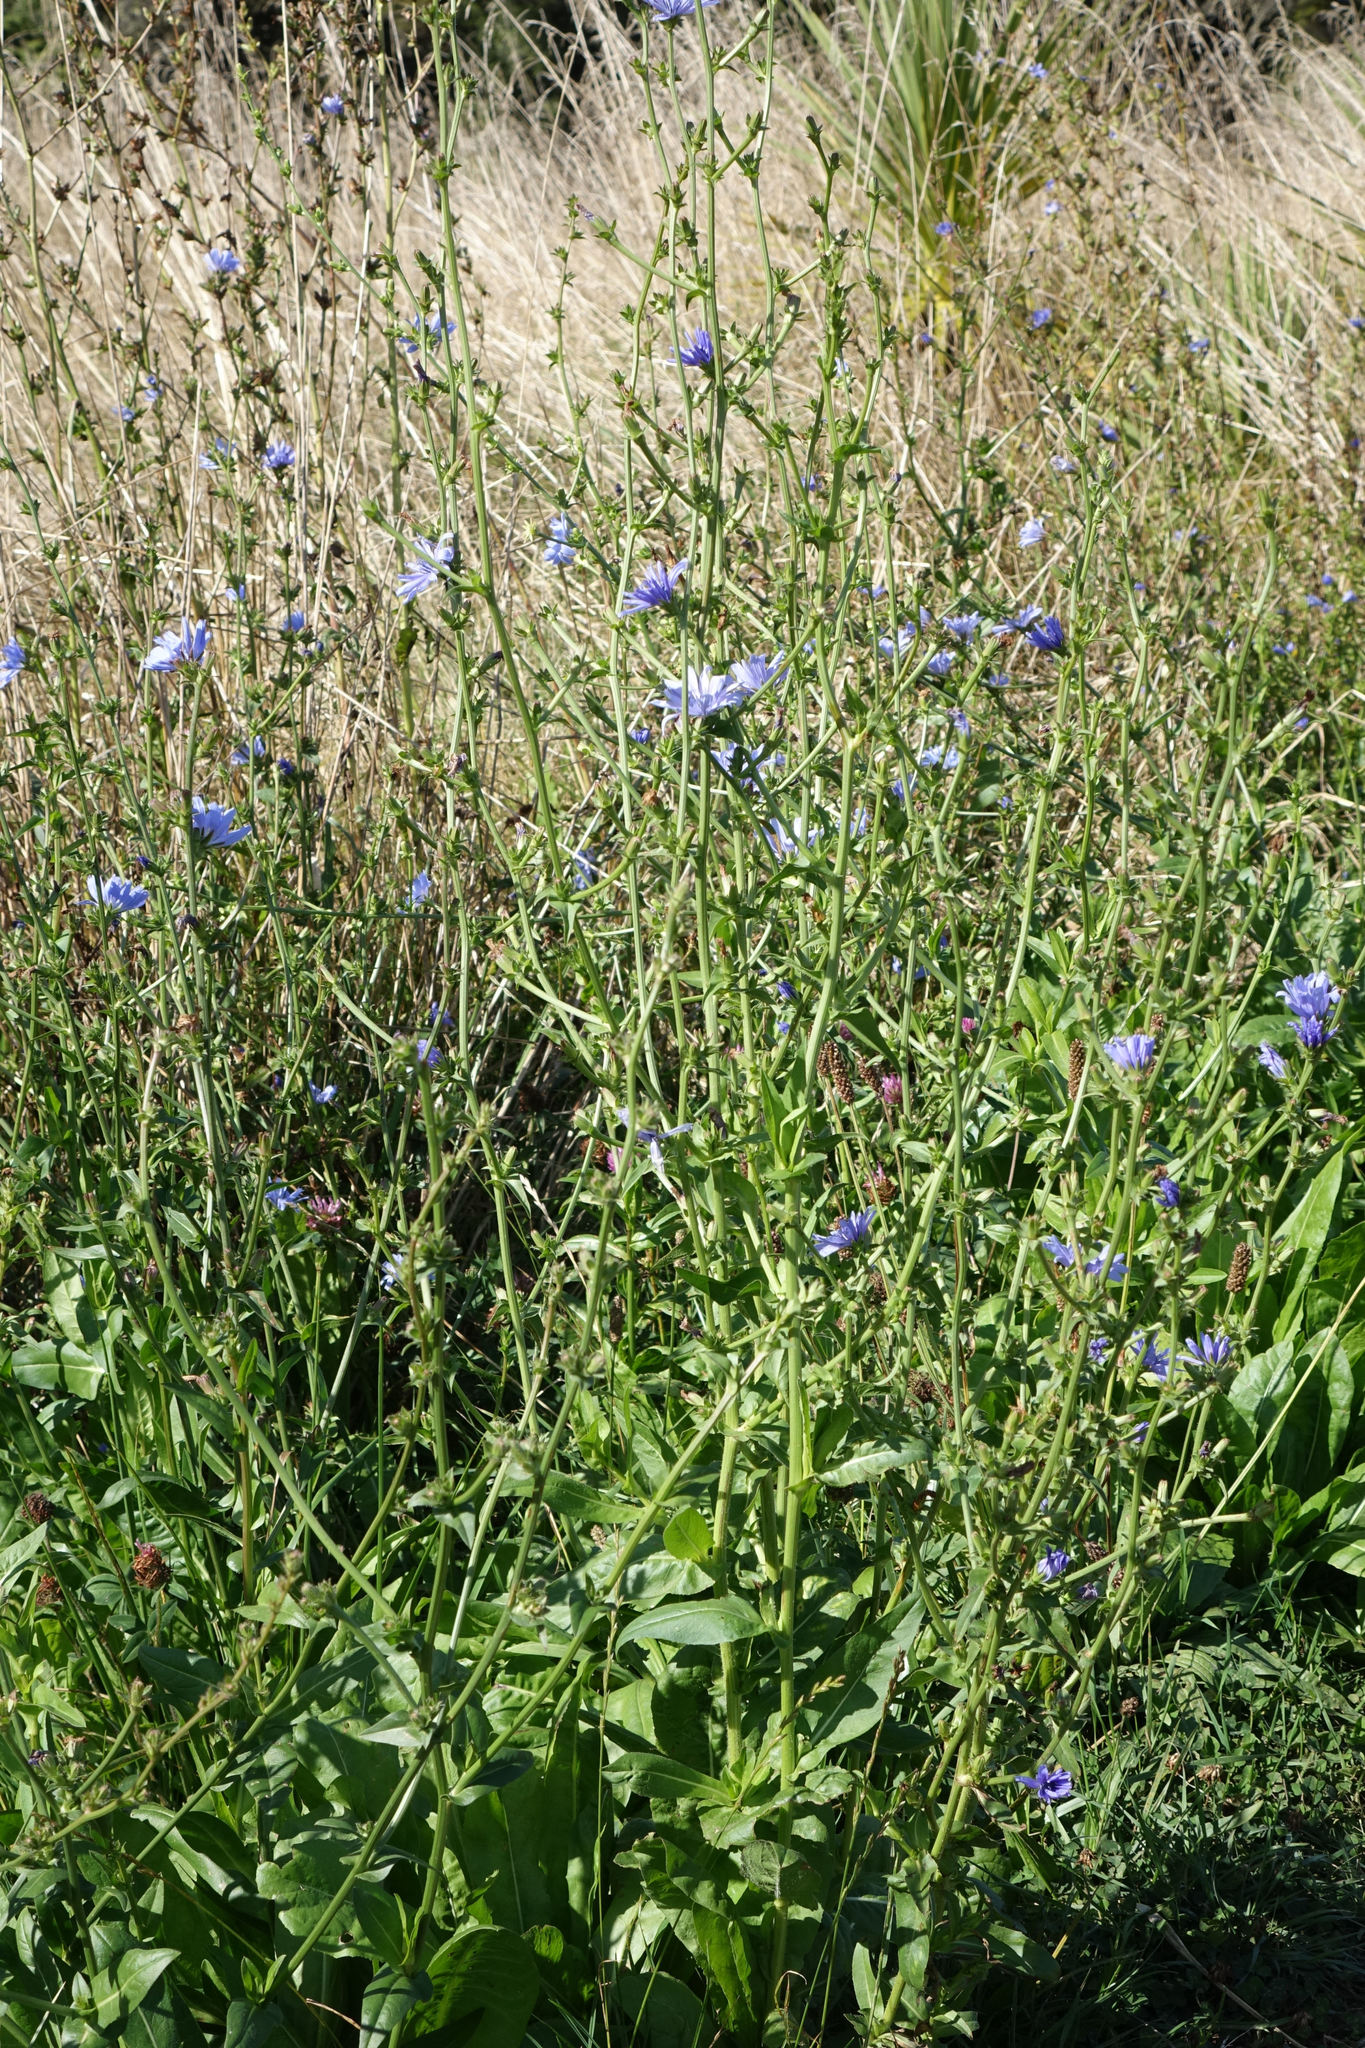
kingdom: Plantae
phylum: Tracheophyta
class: Magnoliopsida
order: Asterales
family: Asteraceae
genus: Cichorium
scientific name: Cichorium intybus
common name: Chicory
